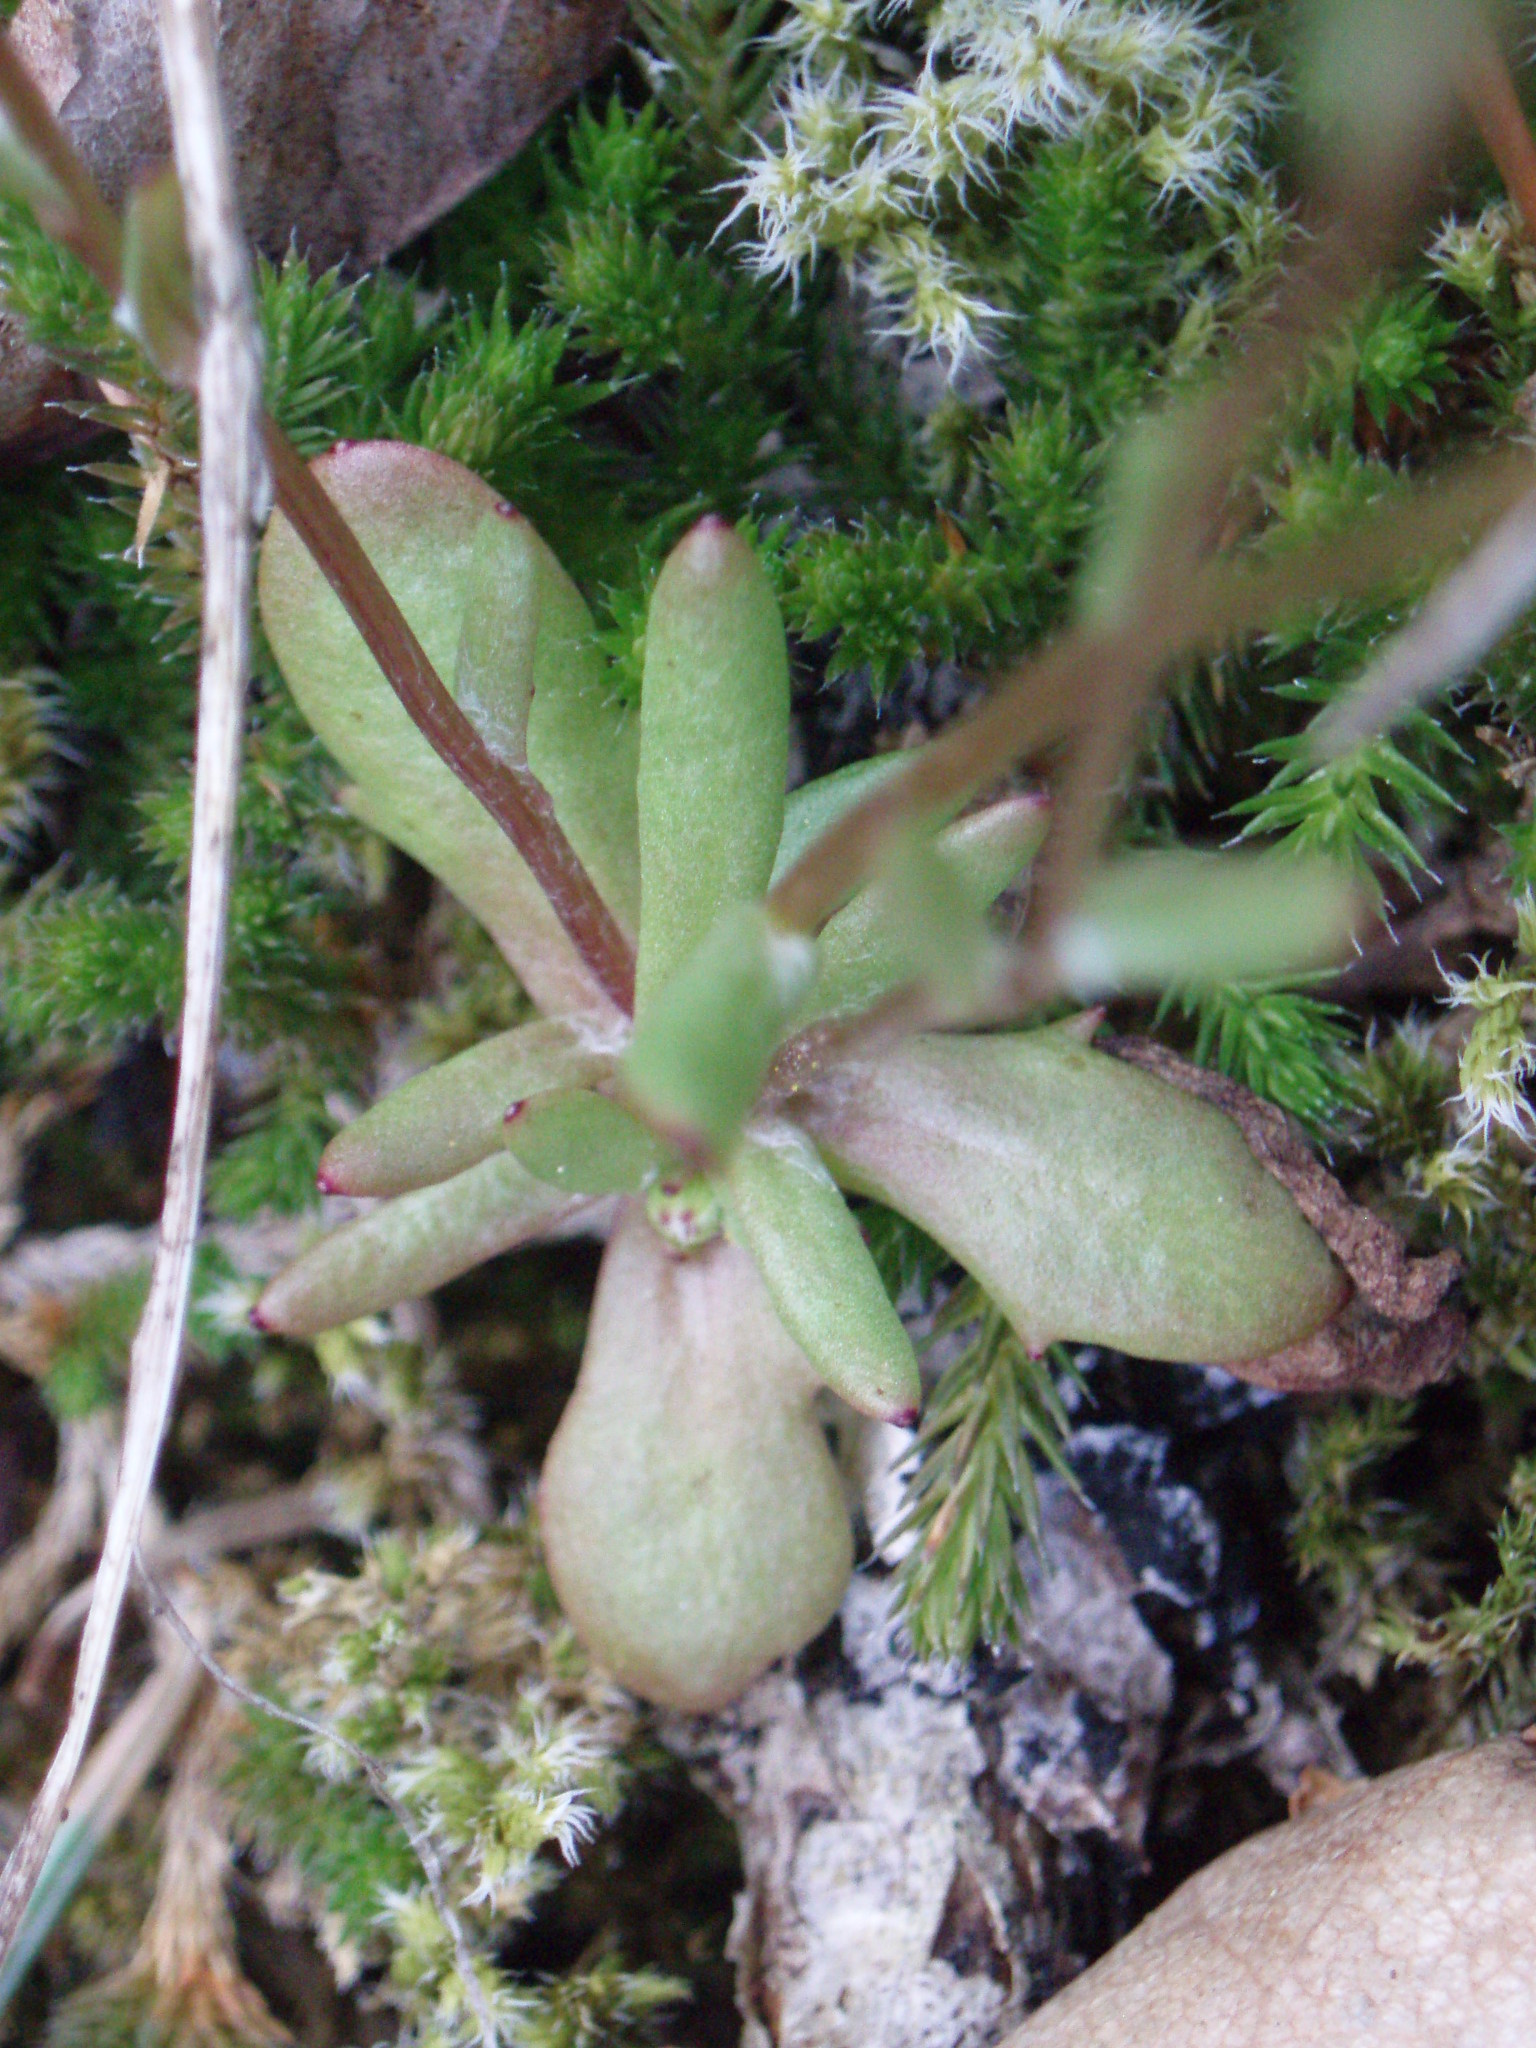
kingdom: Plantae
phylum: Tracheophyta
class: Magnoliopsida
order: Asterales
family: Asteraceae
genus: Crocidium
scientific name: Crocidium multicaule
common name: Common spring gold
